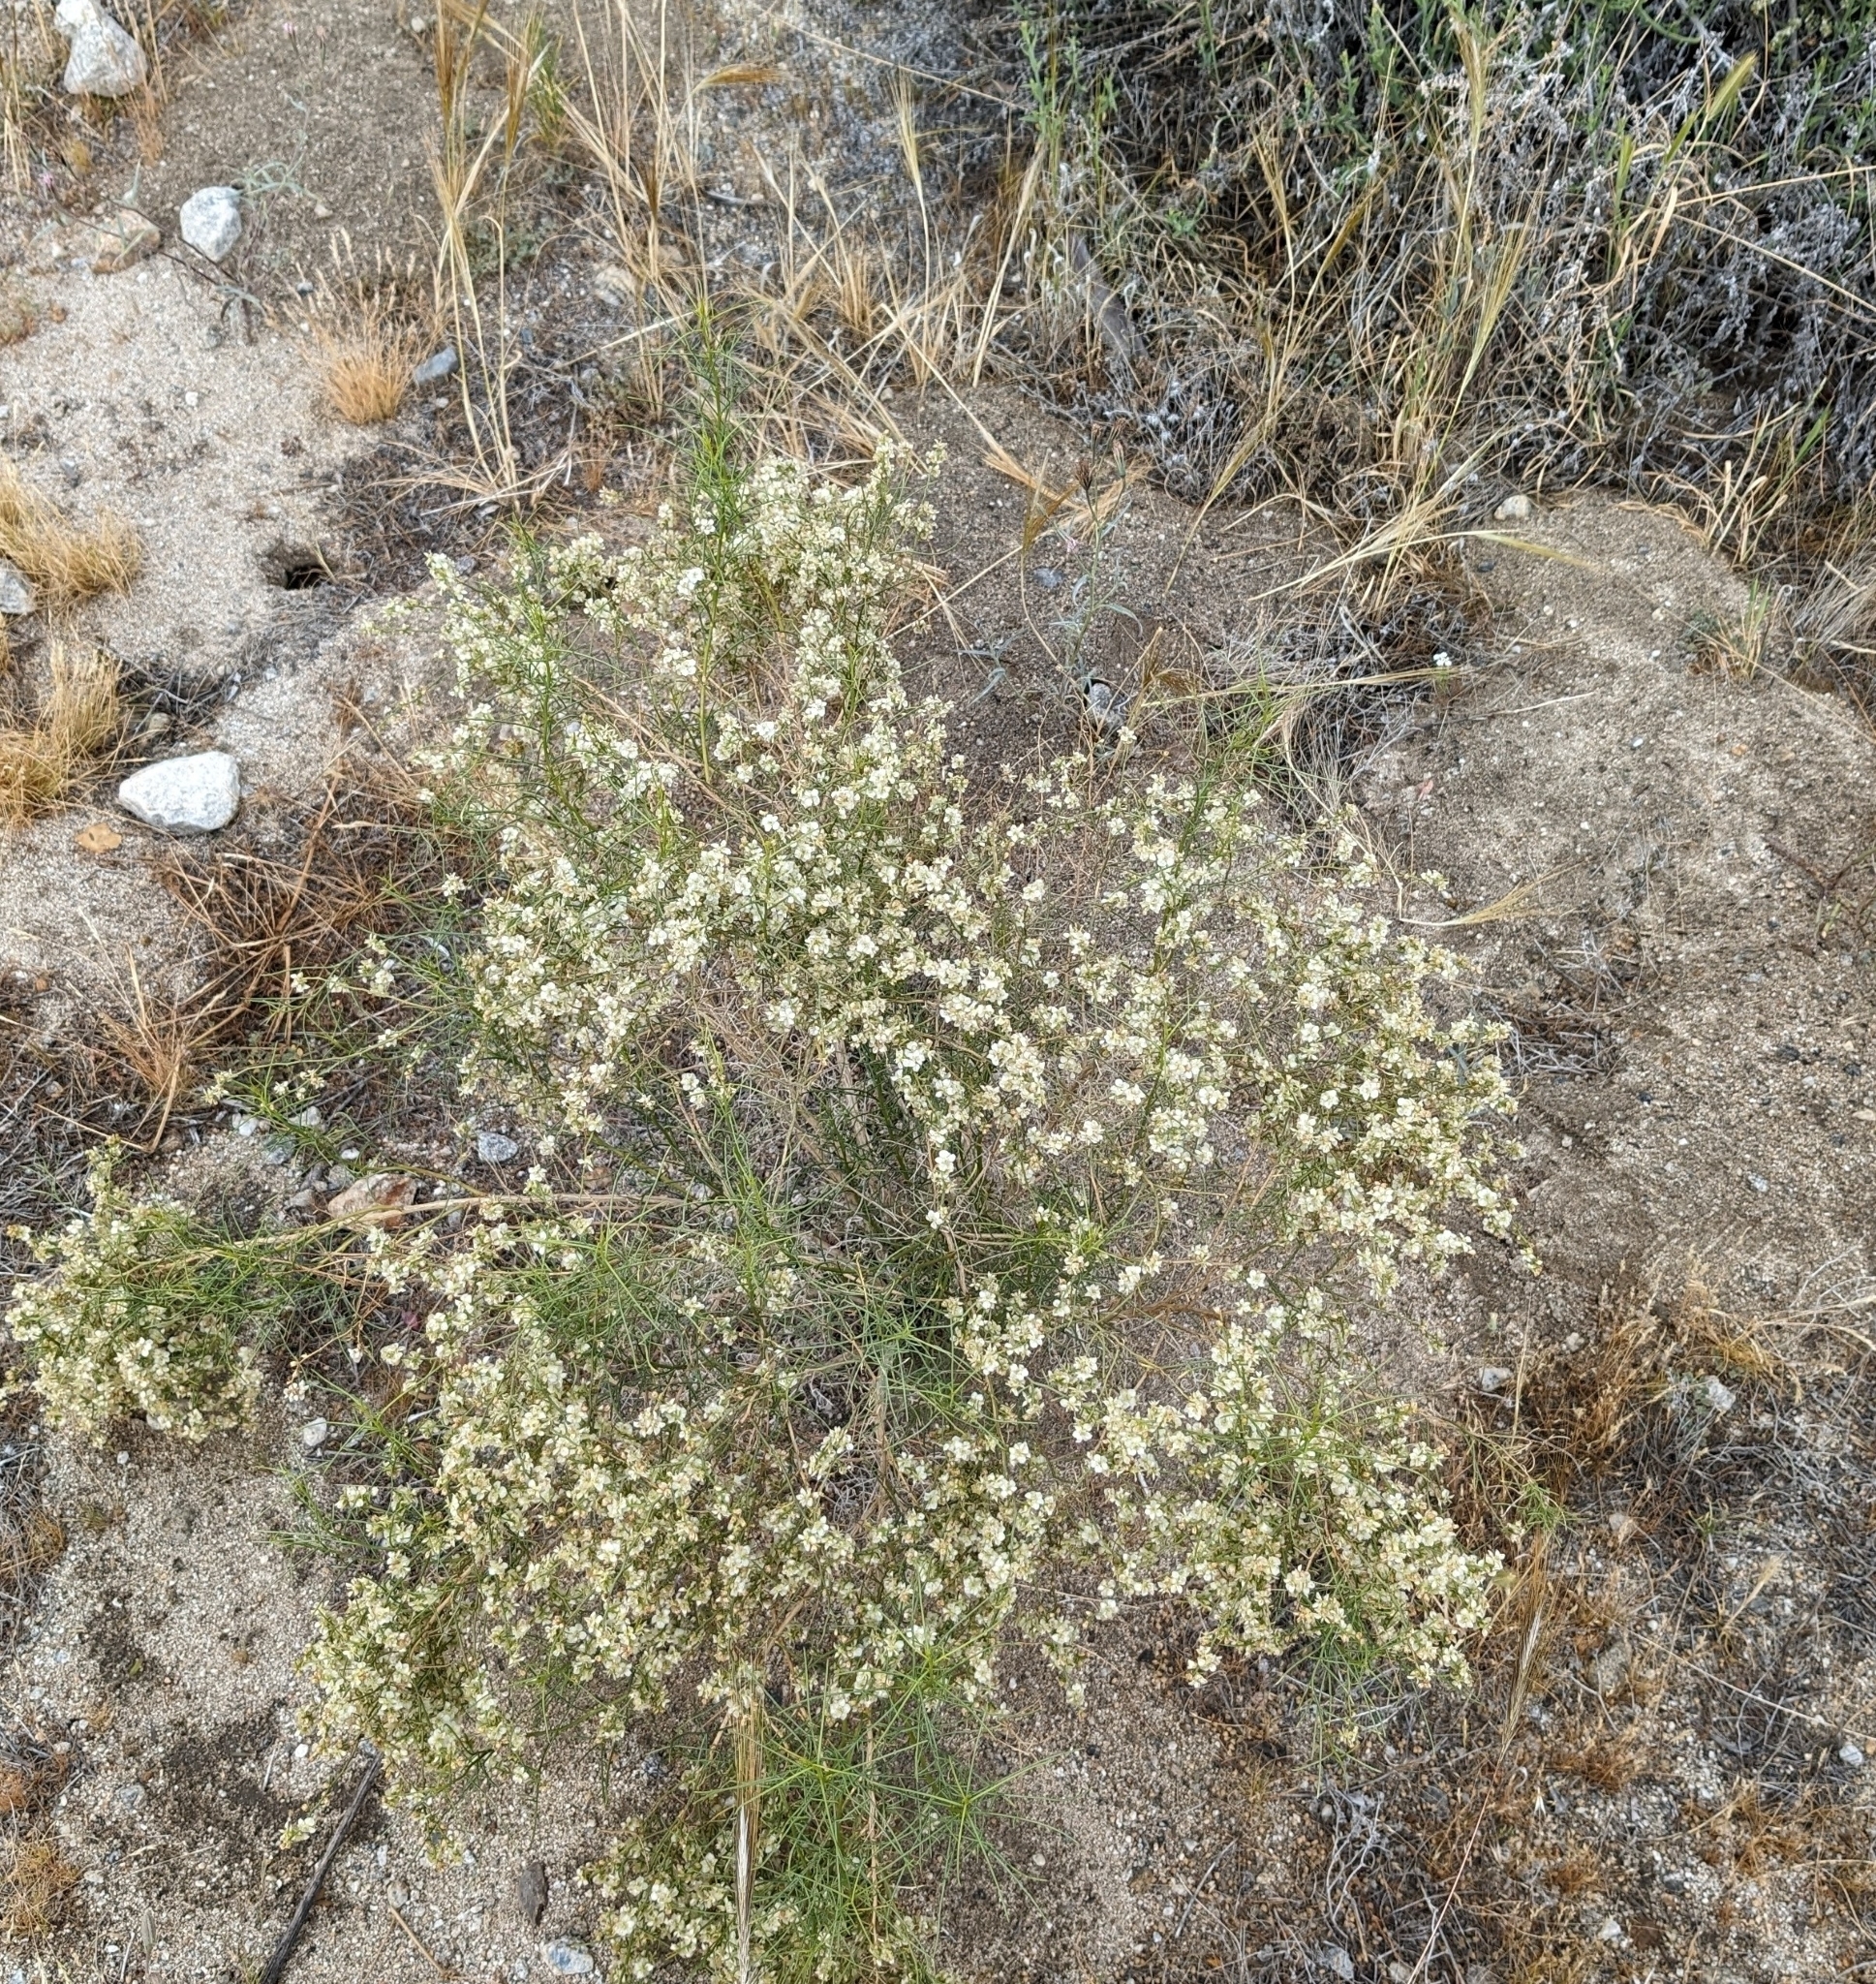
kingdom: Plantae
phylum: Tracheophyta
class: Magnoliopsida
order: Asterales
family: Asteraceae
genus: Ambrosia
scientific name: Ambrosia salsola
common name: Burrobrush
